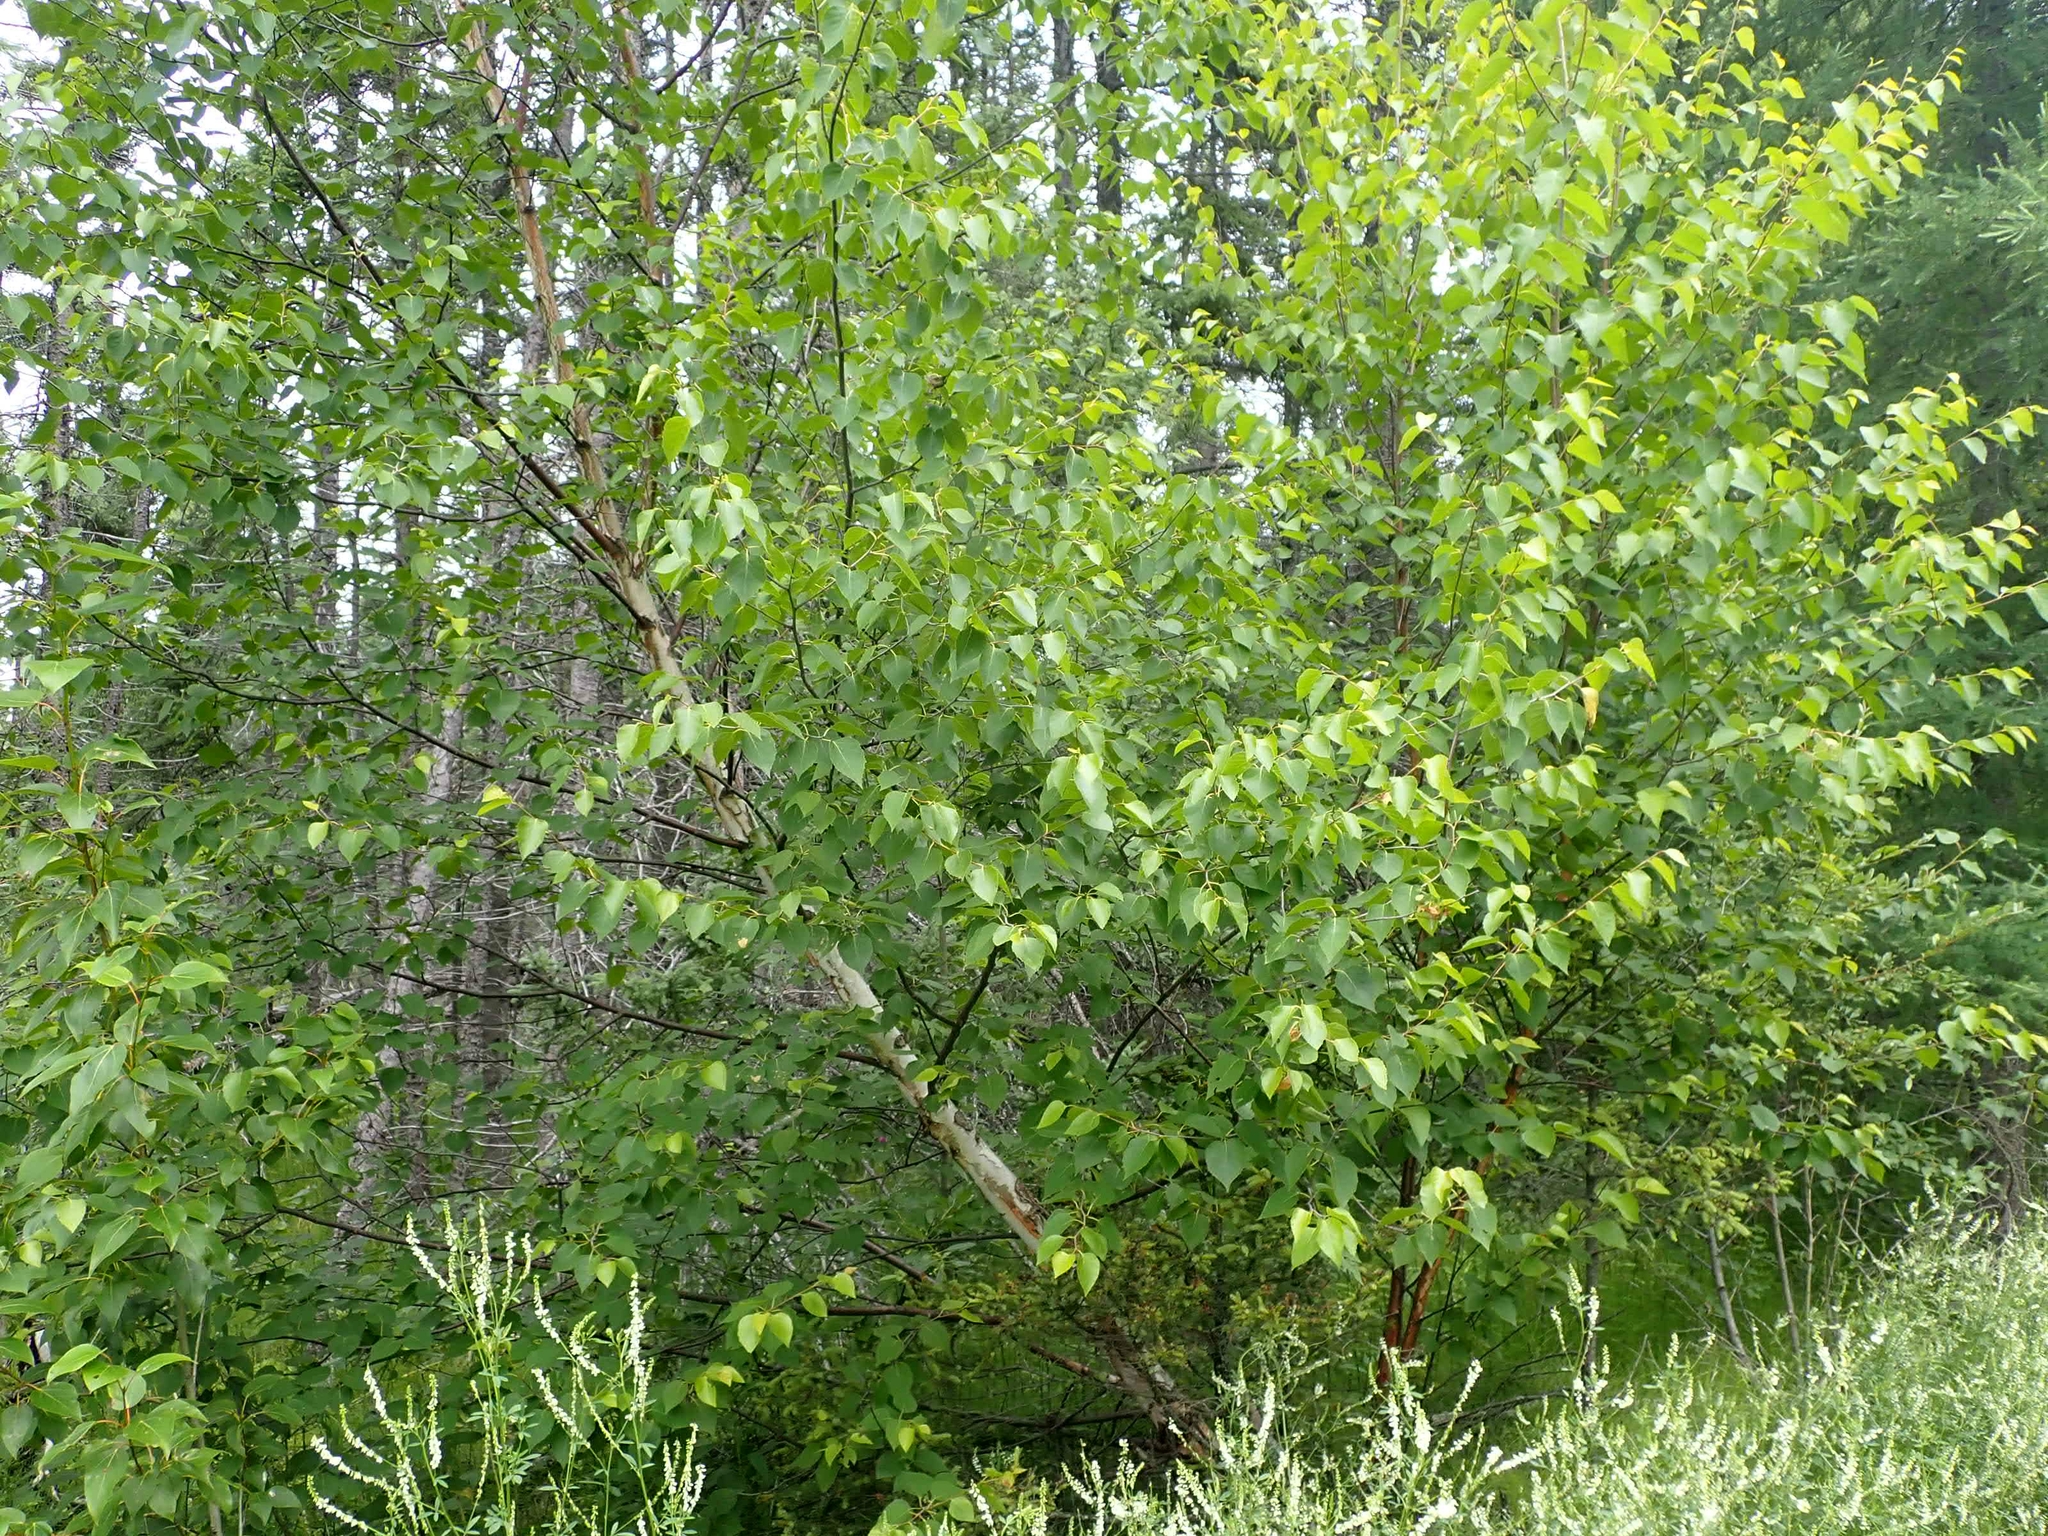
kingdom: Plantae
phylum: Tracheophyta
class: Magnoliopsida
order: Fagales
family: Betulaceae
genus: Betula
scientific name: Betula papyrifera
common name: Paper birch
